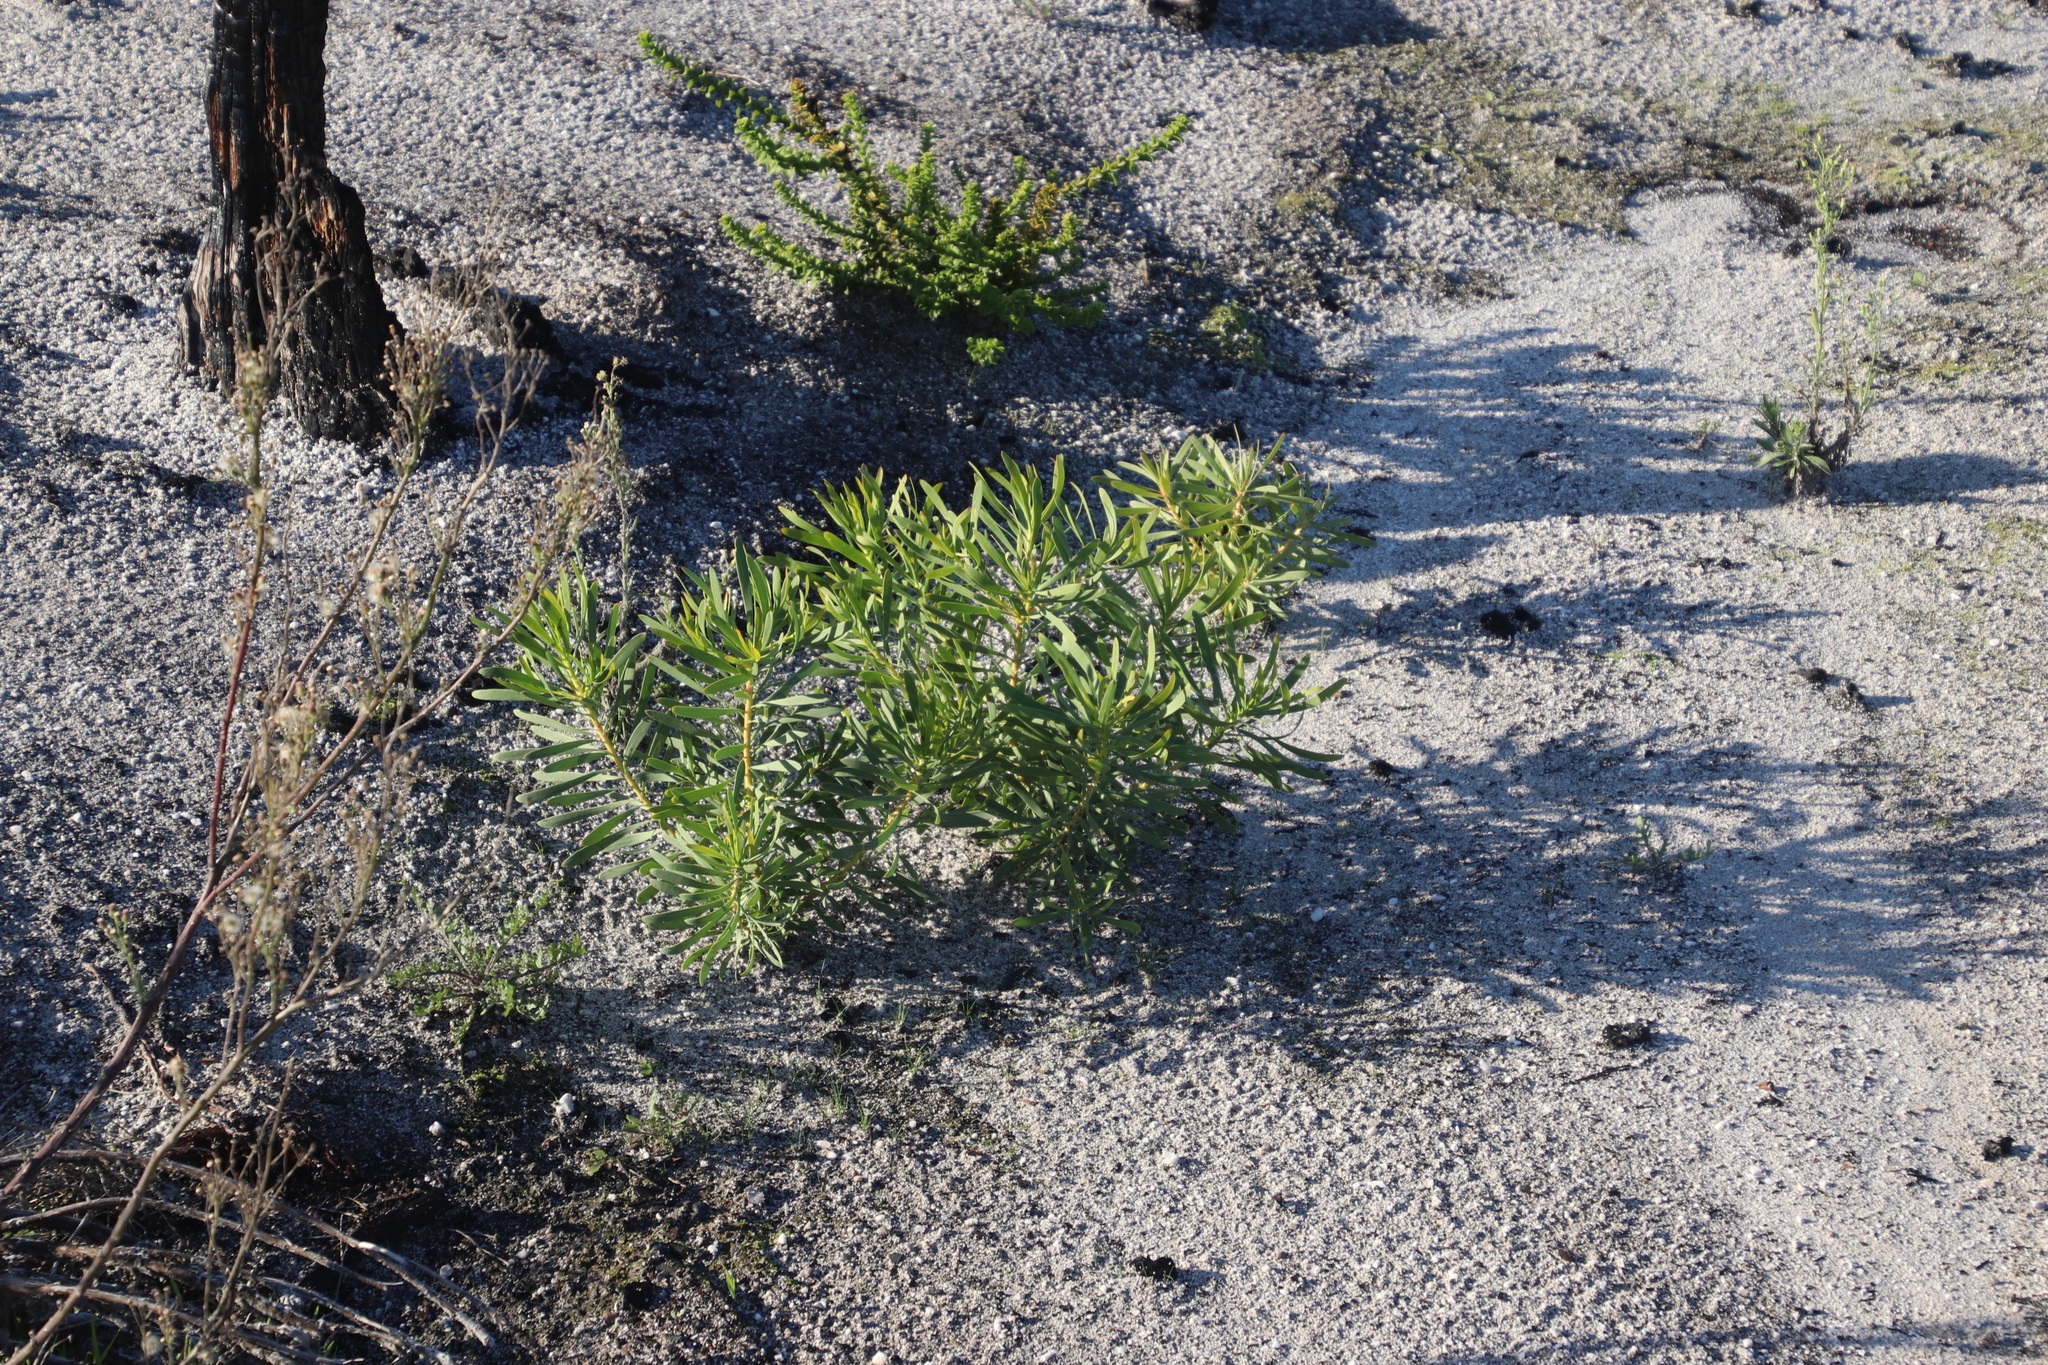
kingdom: Plantae
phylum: Tracheophyta
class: Magnoliopsida
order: Proteales
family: Proteaceae
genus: Protea
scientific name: Protea repens
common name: Sugarbush
